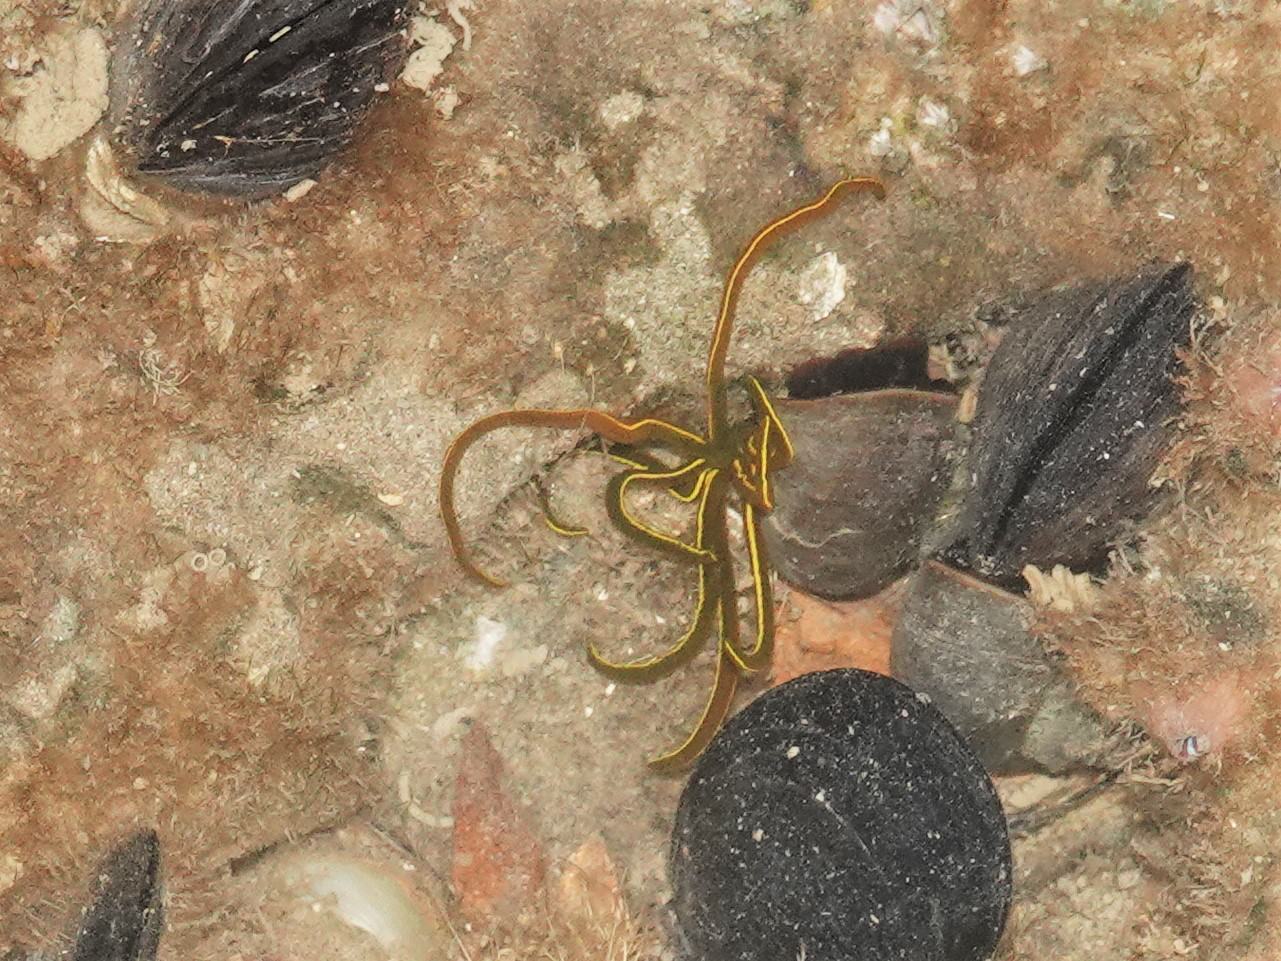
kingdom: Animalia
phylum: Annelida
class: Polychaeta
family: Acrocirridae
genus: Acrocirrus
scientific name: Acrocirrus
